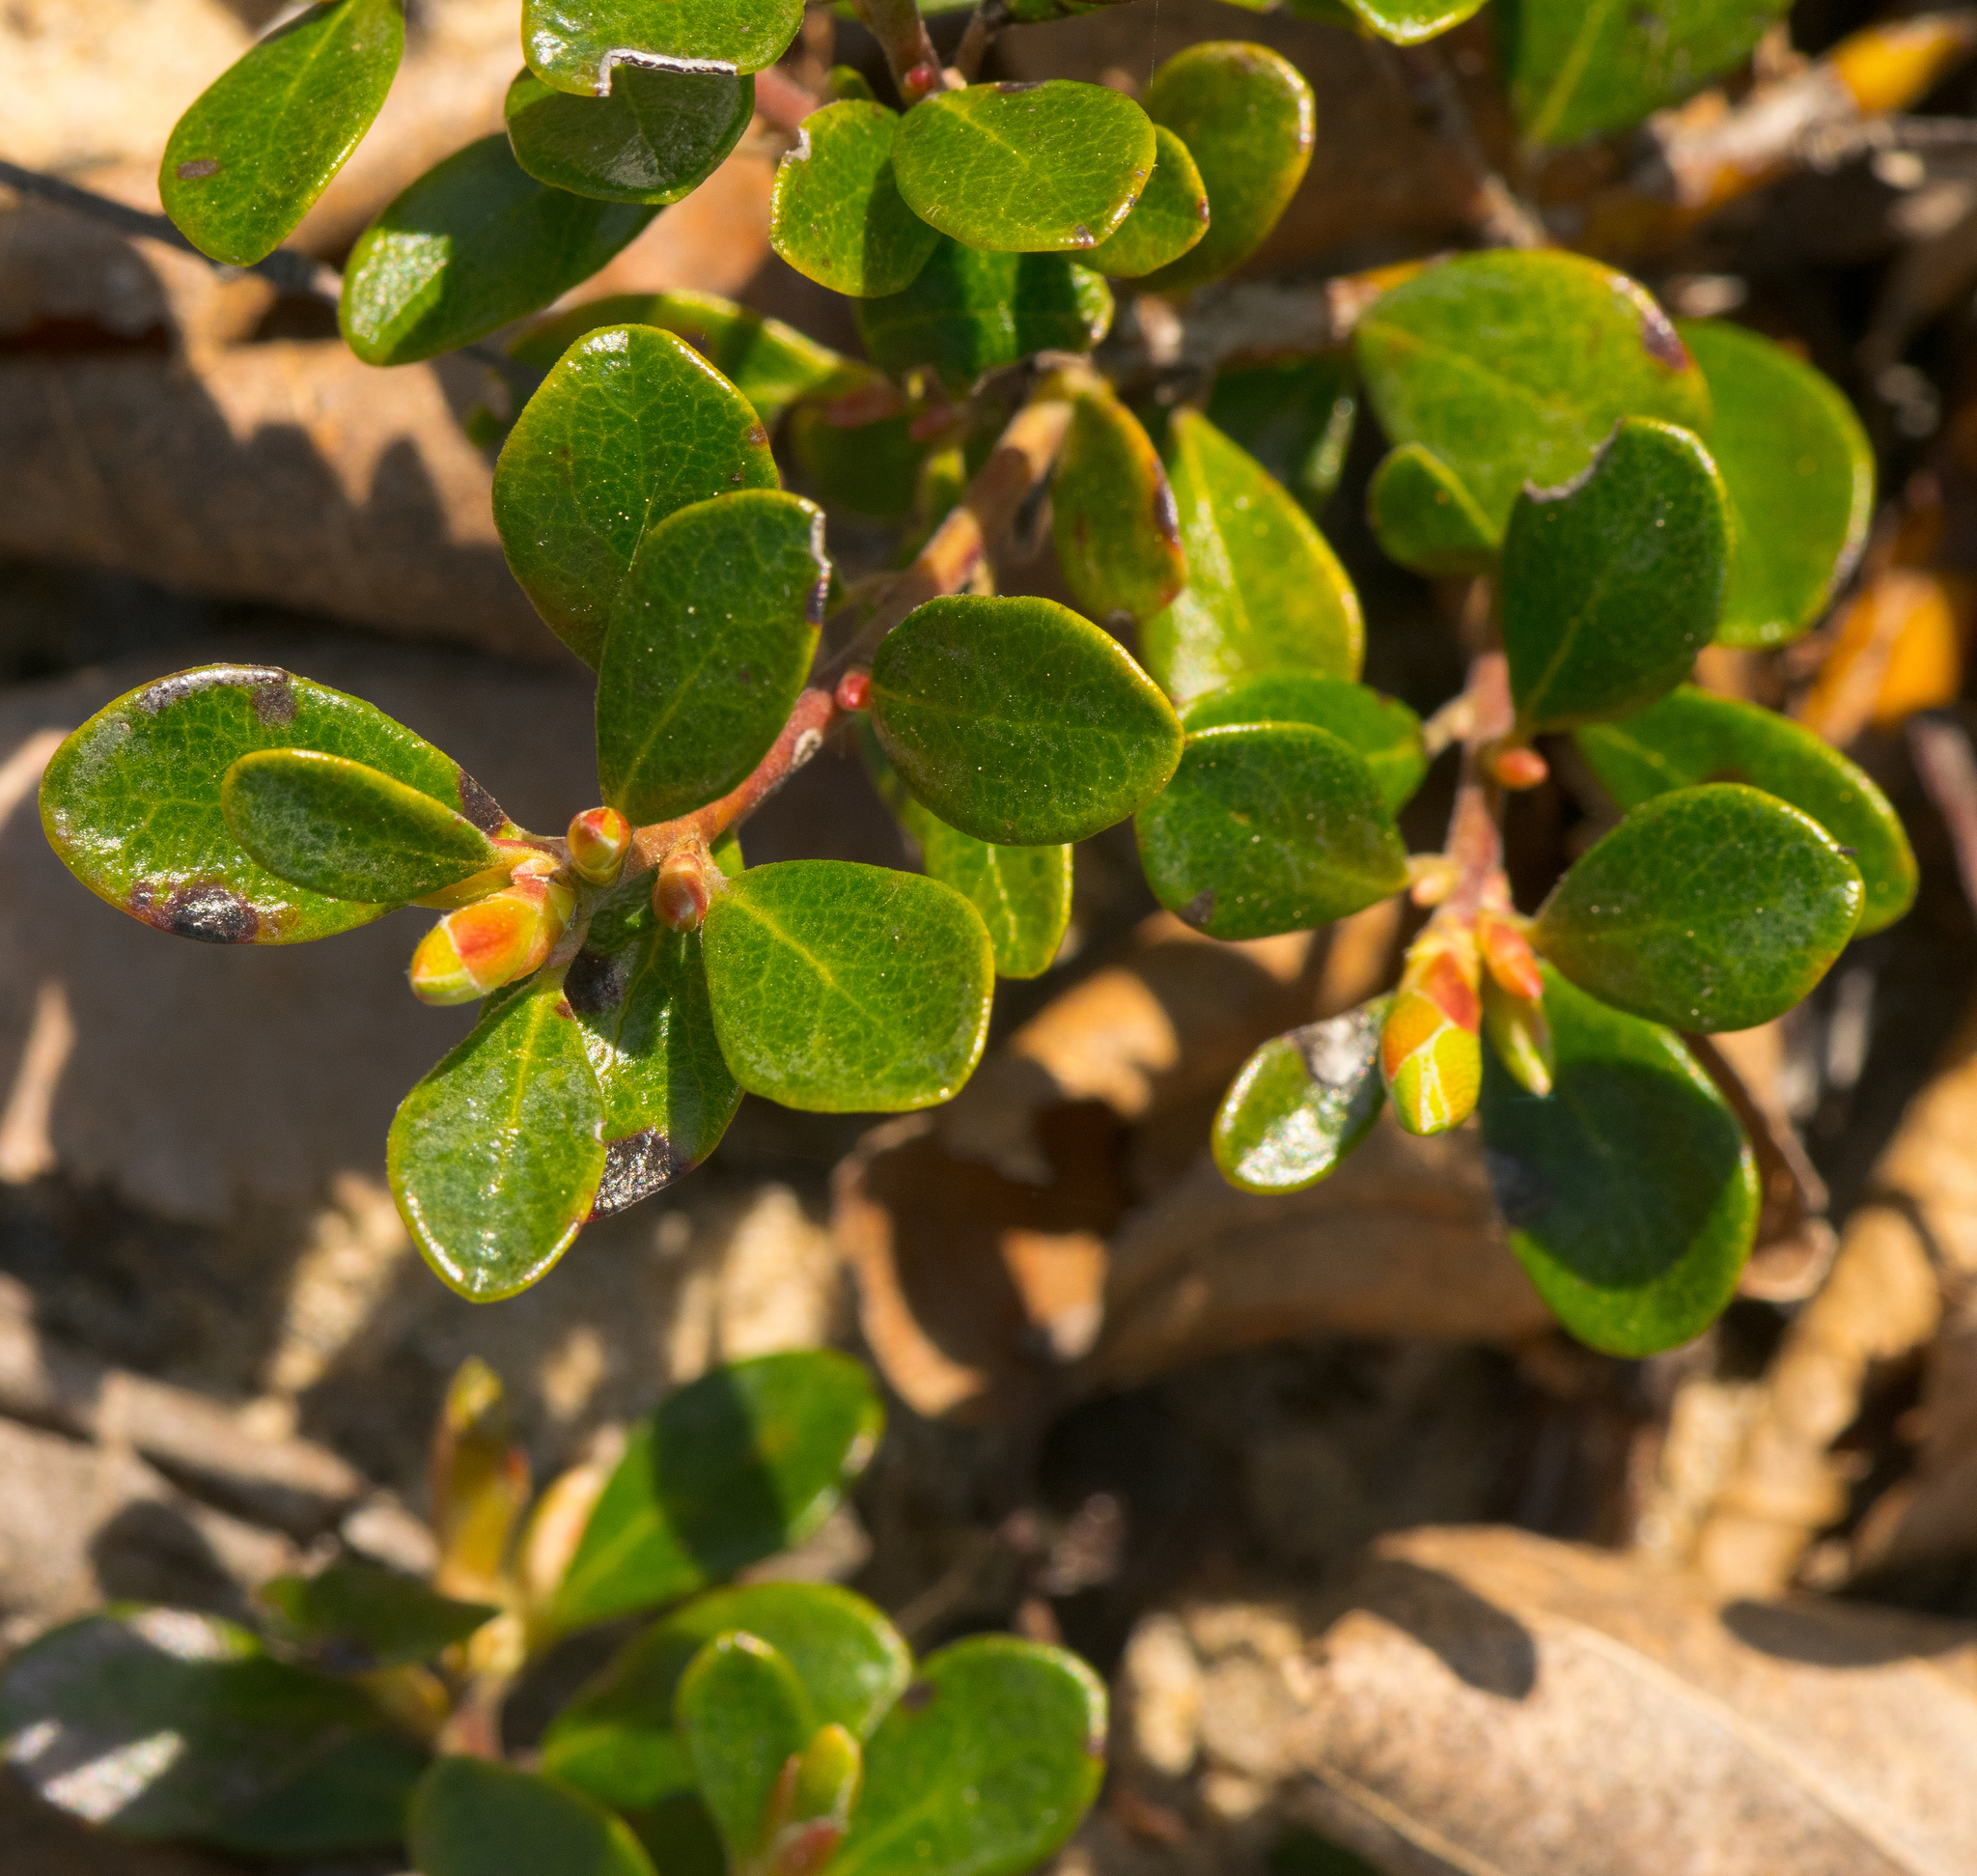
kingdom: Plantae
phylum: Tracheophyta
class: Magnoliopsida
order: Ericales
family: Ericaceae
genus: Arctostaphylos
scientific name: Arctostaphylos uva-ursi
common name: Bearberry
